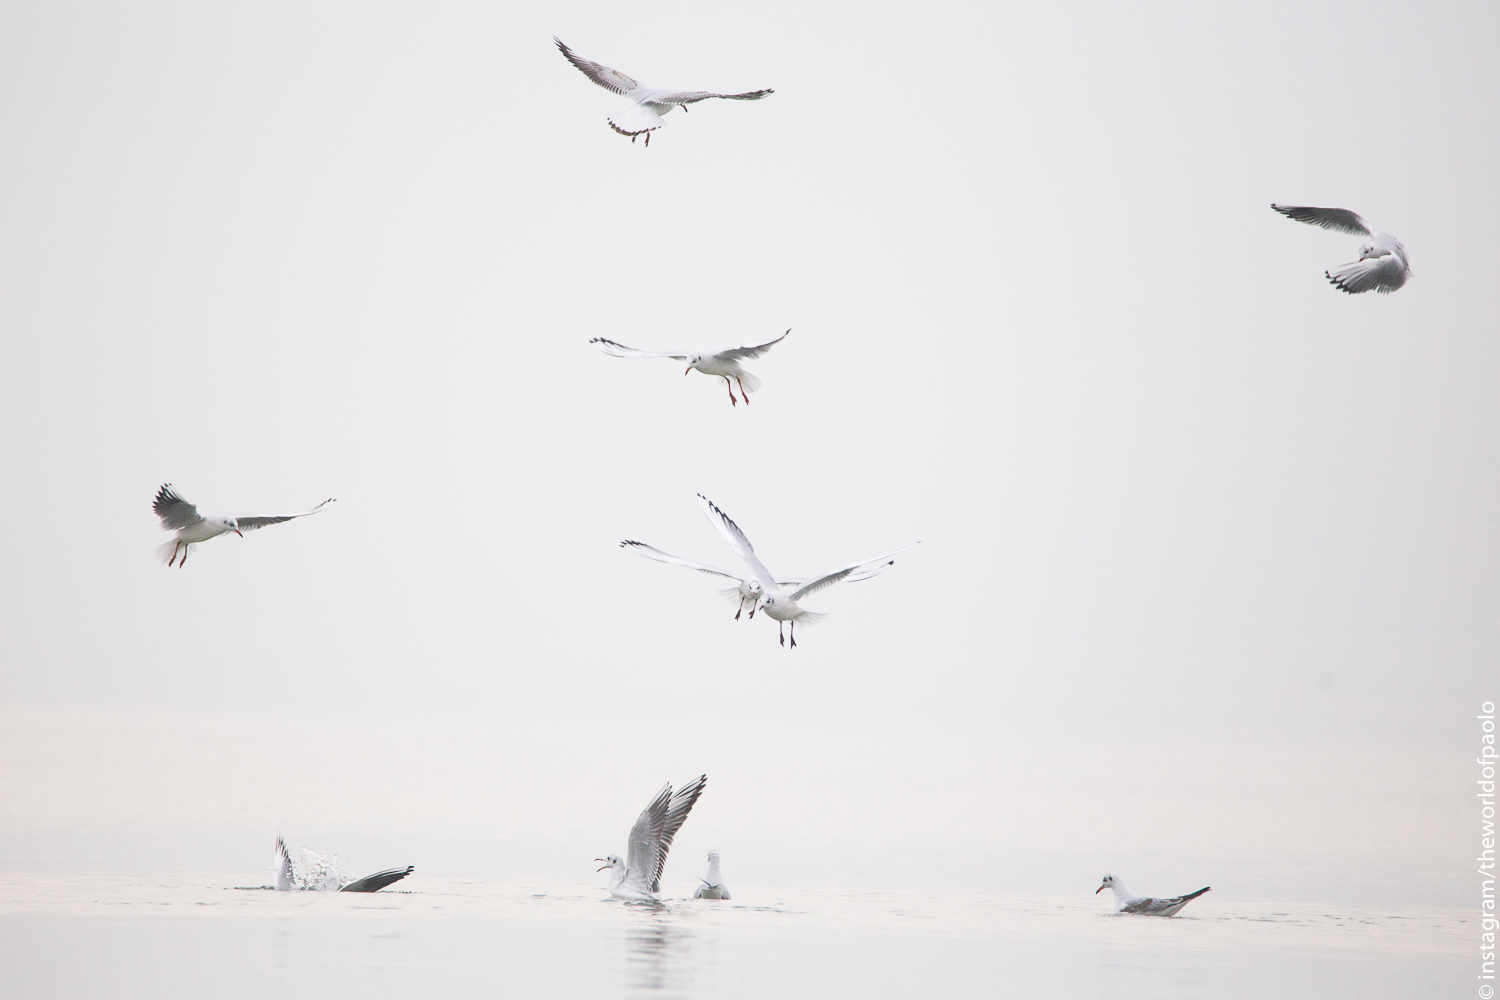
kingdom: Animalia
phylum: Chordata
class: Aves
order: Charadriiformes
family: Laridae
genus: Chroicocephalus
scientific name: Chroicocephalus ridibundus
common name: Black-headed gull
